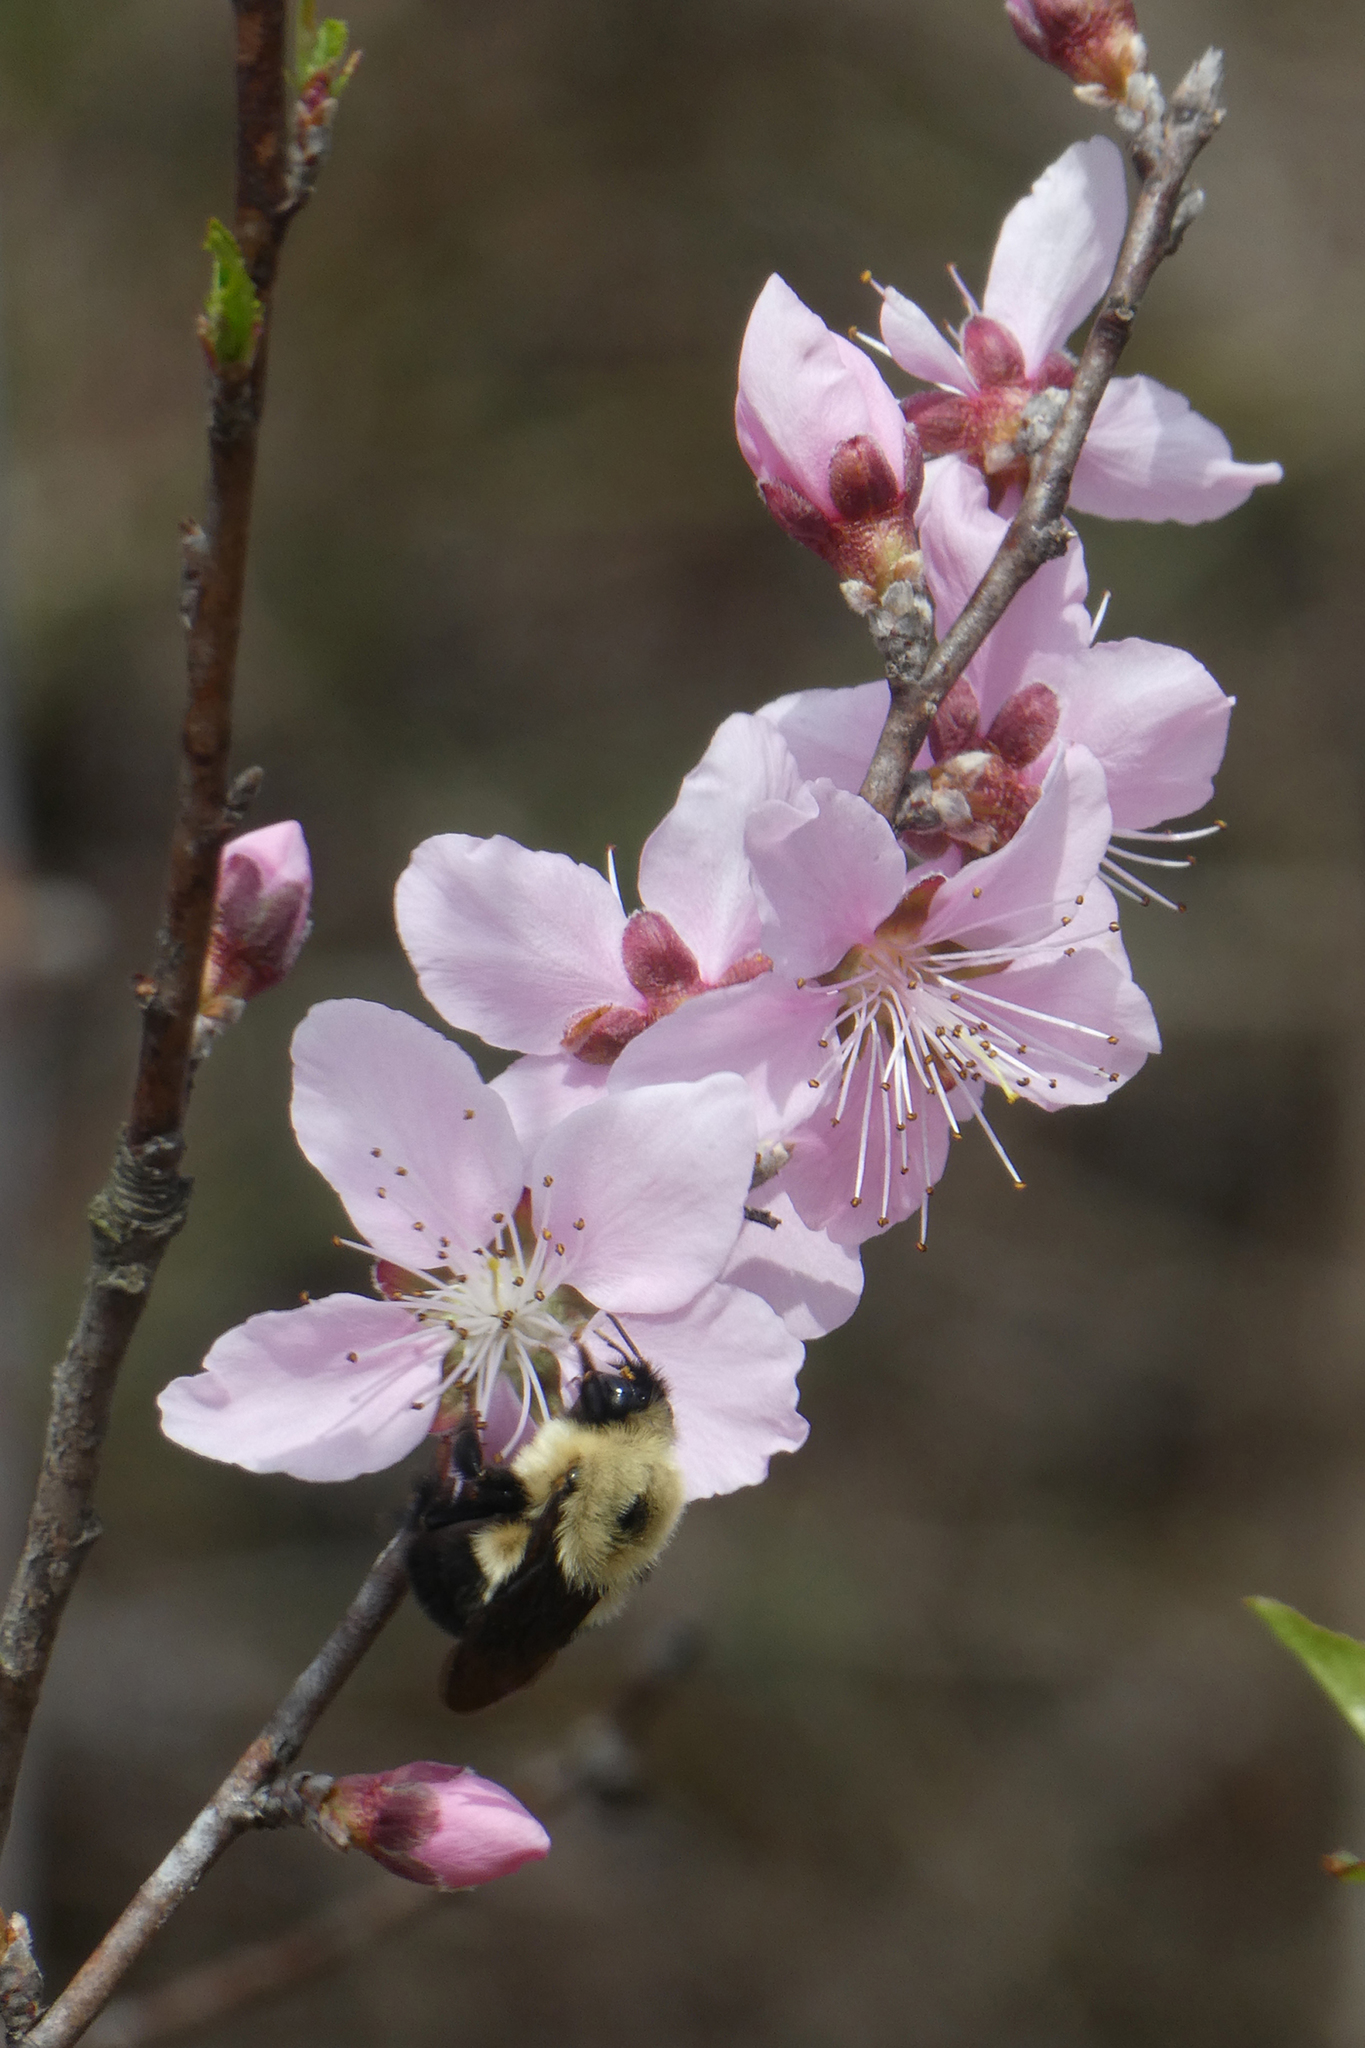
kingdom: Animalia
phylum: Arthropoda
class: Insecta
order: Hymenoptera
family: Apidae
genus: Bombus
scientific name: Bombus bimaculatus
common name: Two-spotted bumble bee
